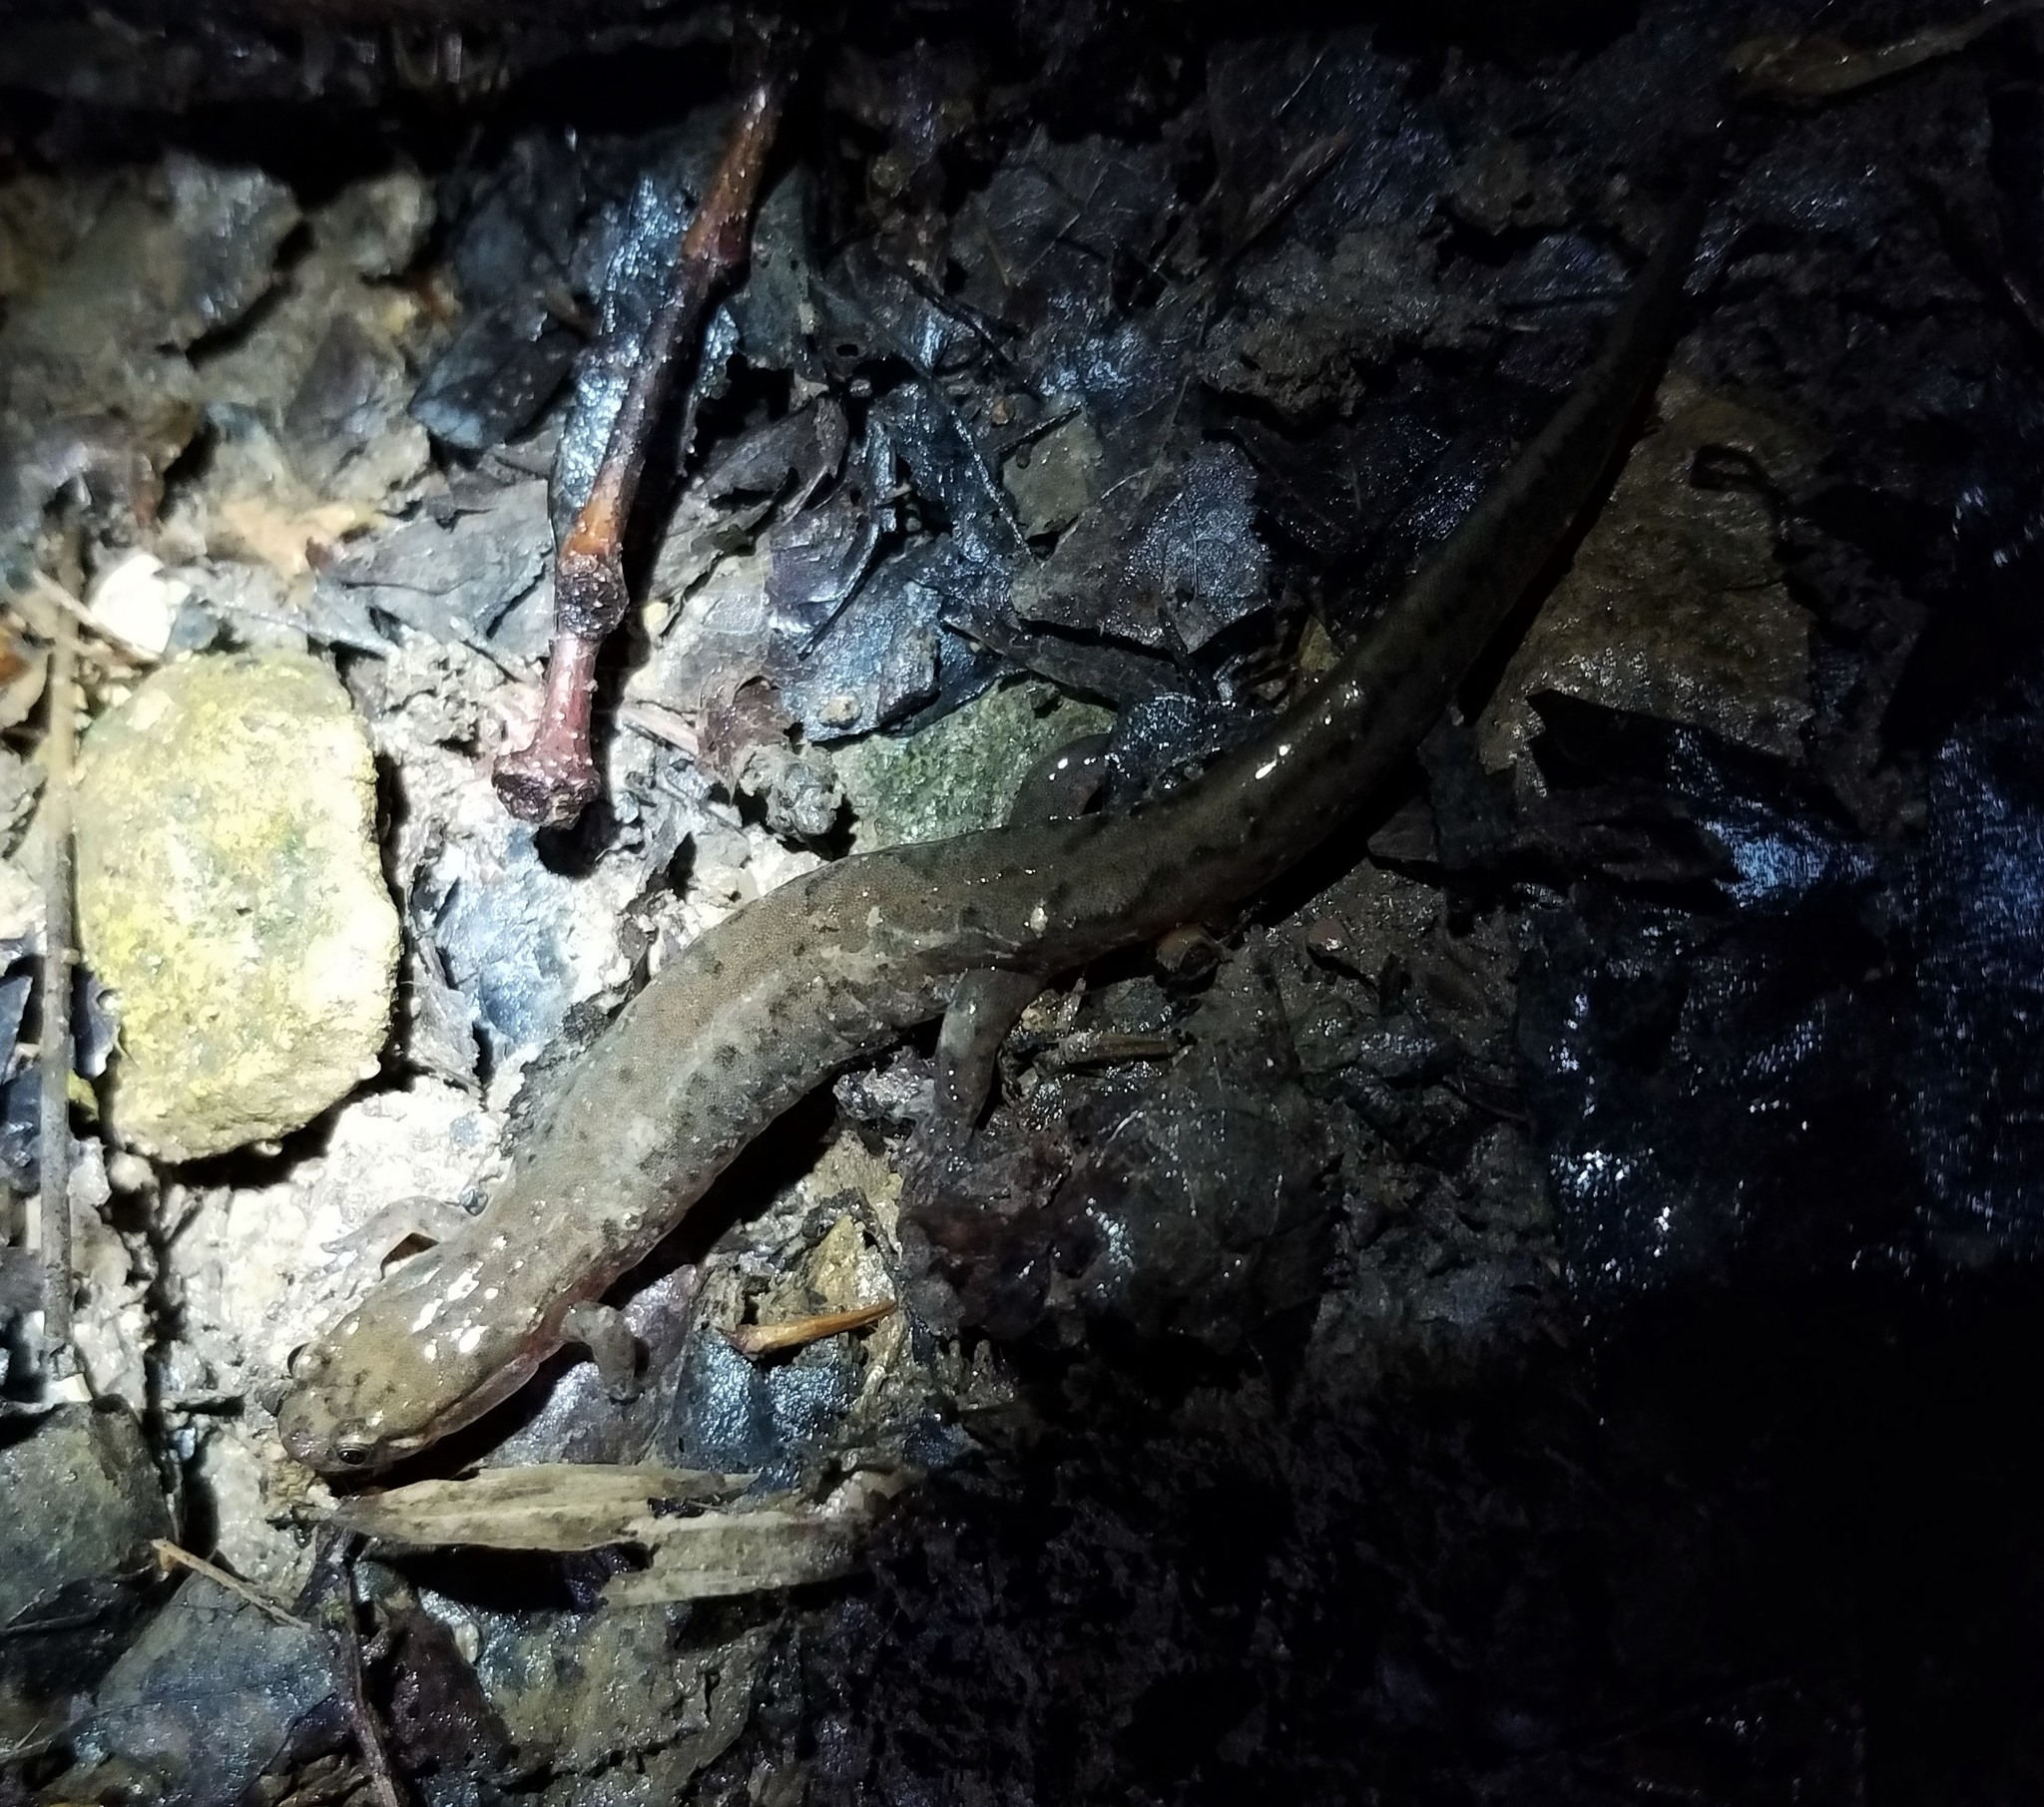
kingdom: Animalia
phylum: Chordata
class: Amphibia
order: Caudata
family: Plethodontidae
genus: Desmognathus
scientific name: Desmognathus fuscus
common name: Northern dusky salamander
